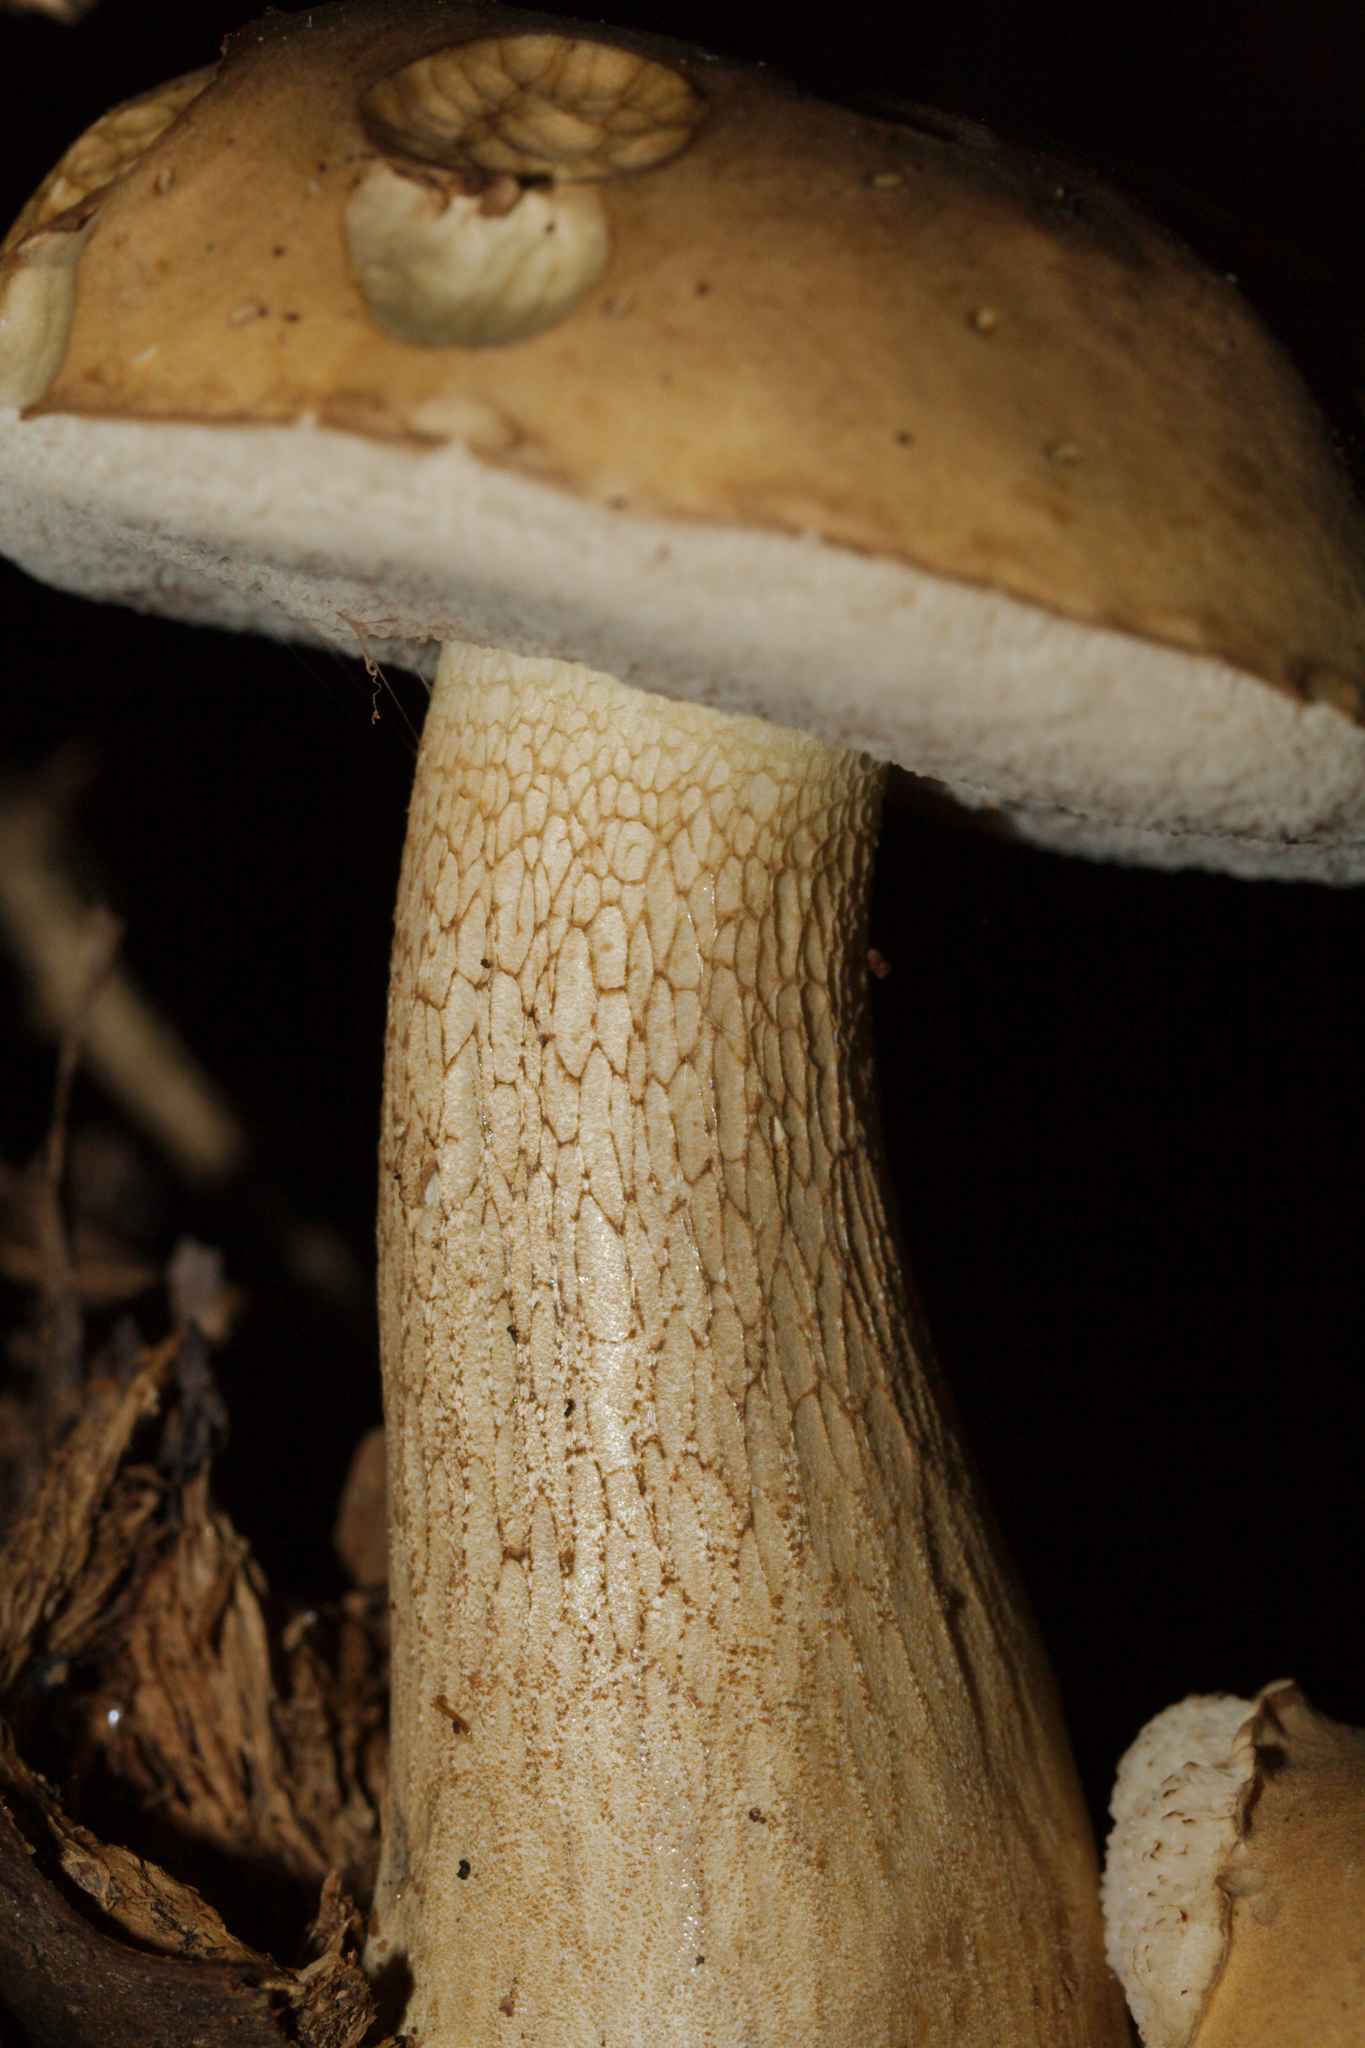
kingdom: Fungi
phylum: Basidiomycota
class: Agaricomycetes
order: Boletales
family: Boletaceae
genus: Tylopilus
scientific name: Tylopilus felleus
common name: Bitter bolete
